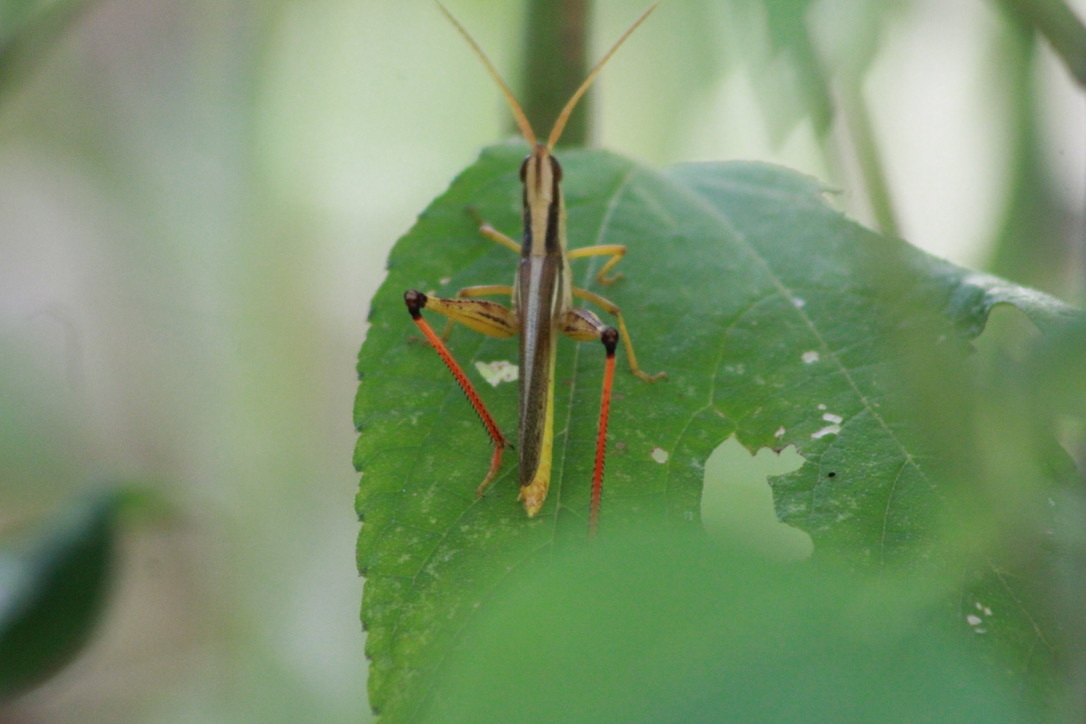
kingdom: Animalia
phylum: Arthropoda
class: Insecta
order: Orthoptera
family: Acrididae
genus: Mermiria
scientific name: Mermiria bivittata
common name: Two-striped mermiria grasshopper
